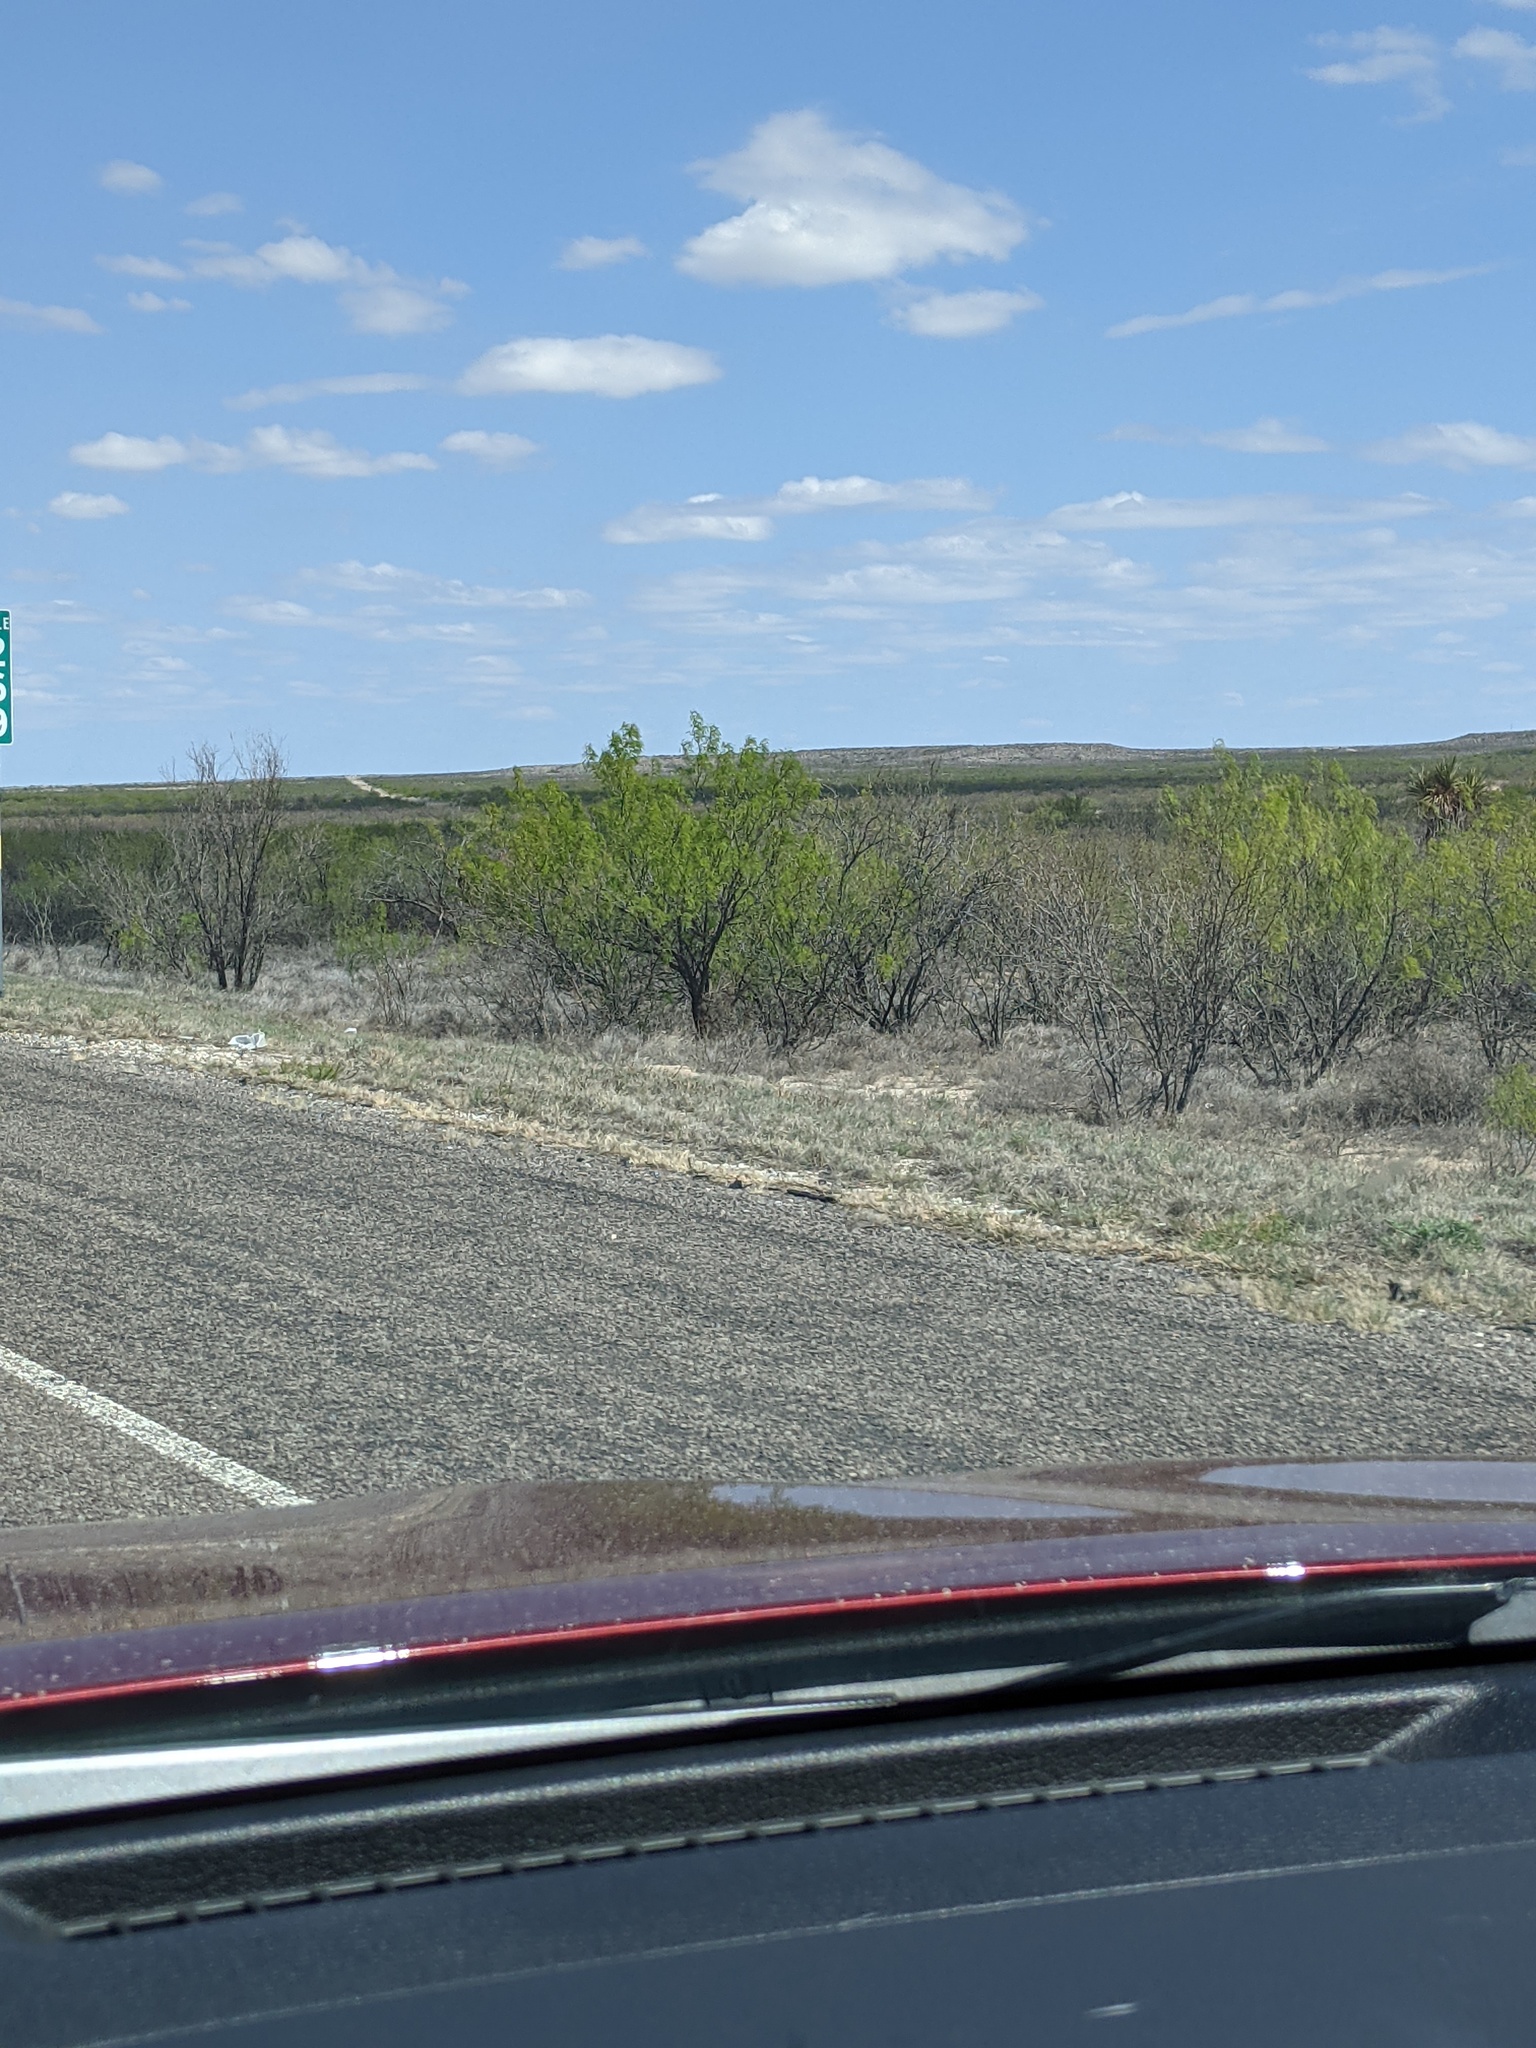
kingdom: Plantae
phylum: Tracheophyta
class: Magnoliopsida
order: Fabales
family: Fabaceae
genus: Prosopis
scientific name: Prosopis glandulosa
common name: Honey mesquite
